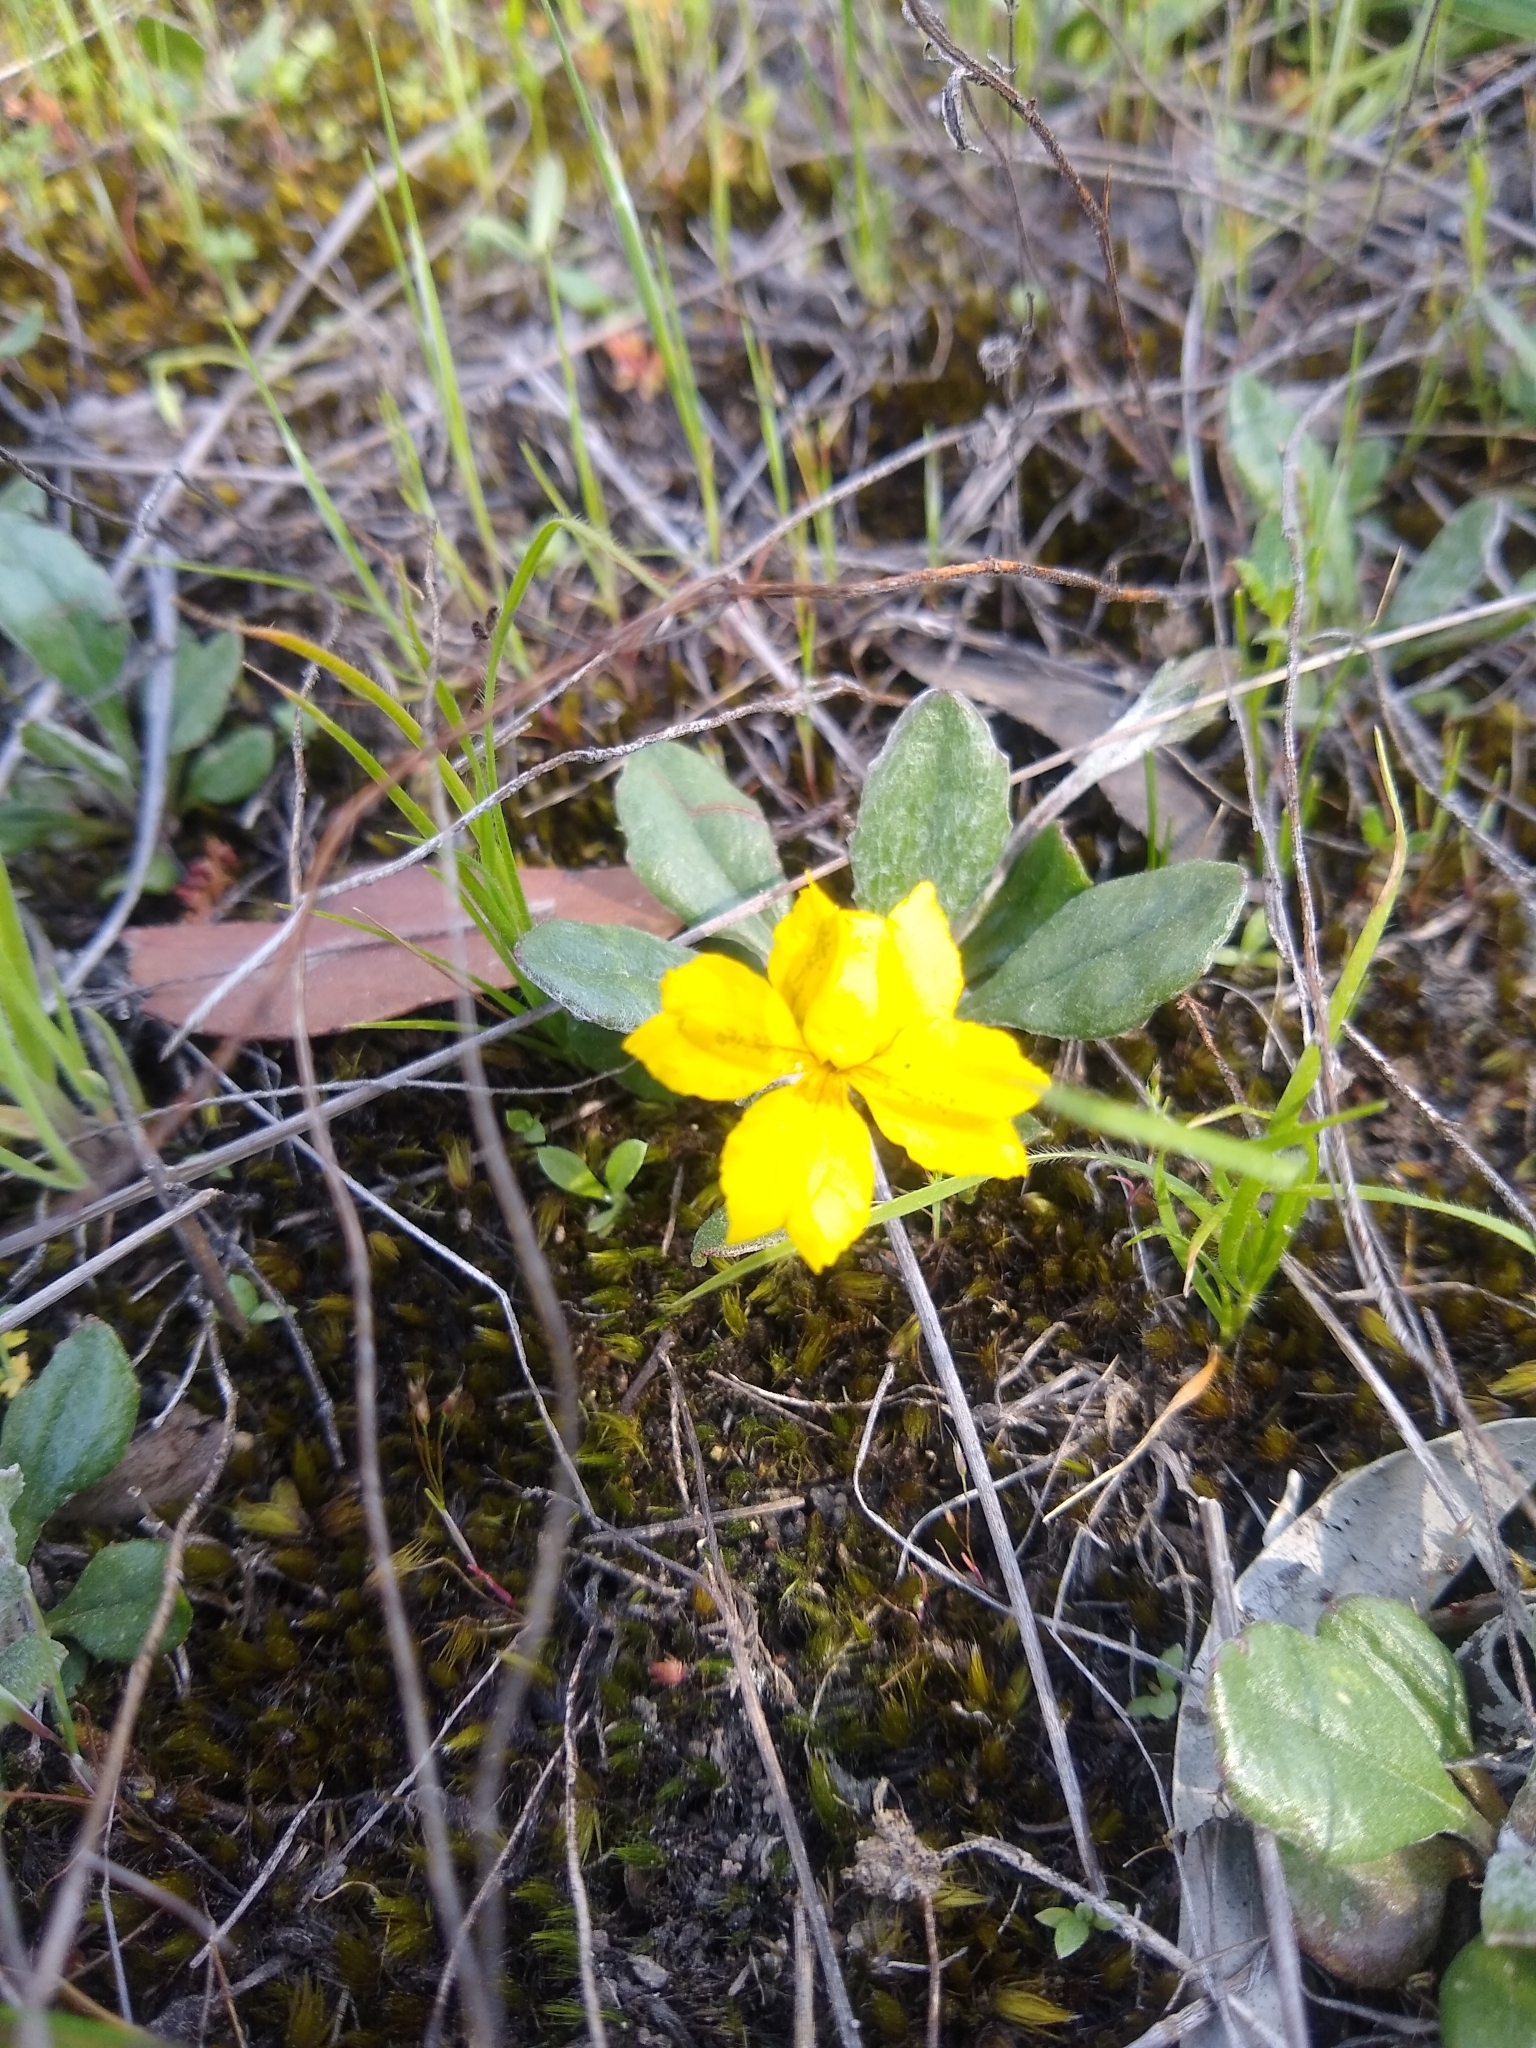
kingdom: Plantae
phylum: Tracheophyta
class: Magnoliopsida
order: Asterales
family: Goodeniaceae
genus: Goodenia
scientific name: Goodenia lanata
